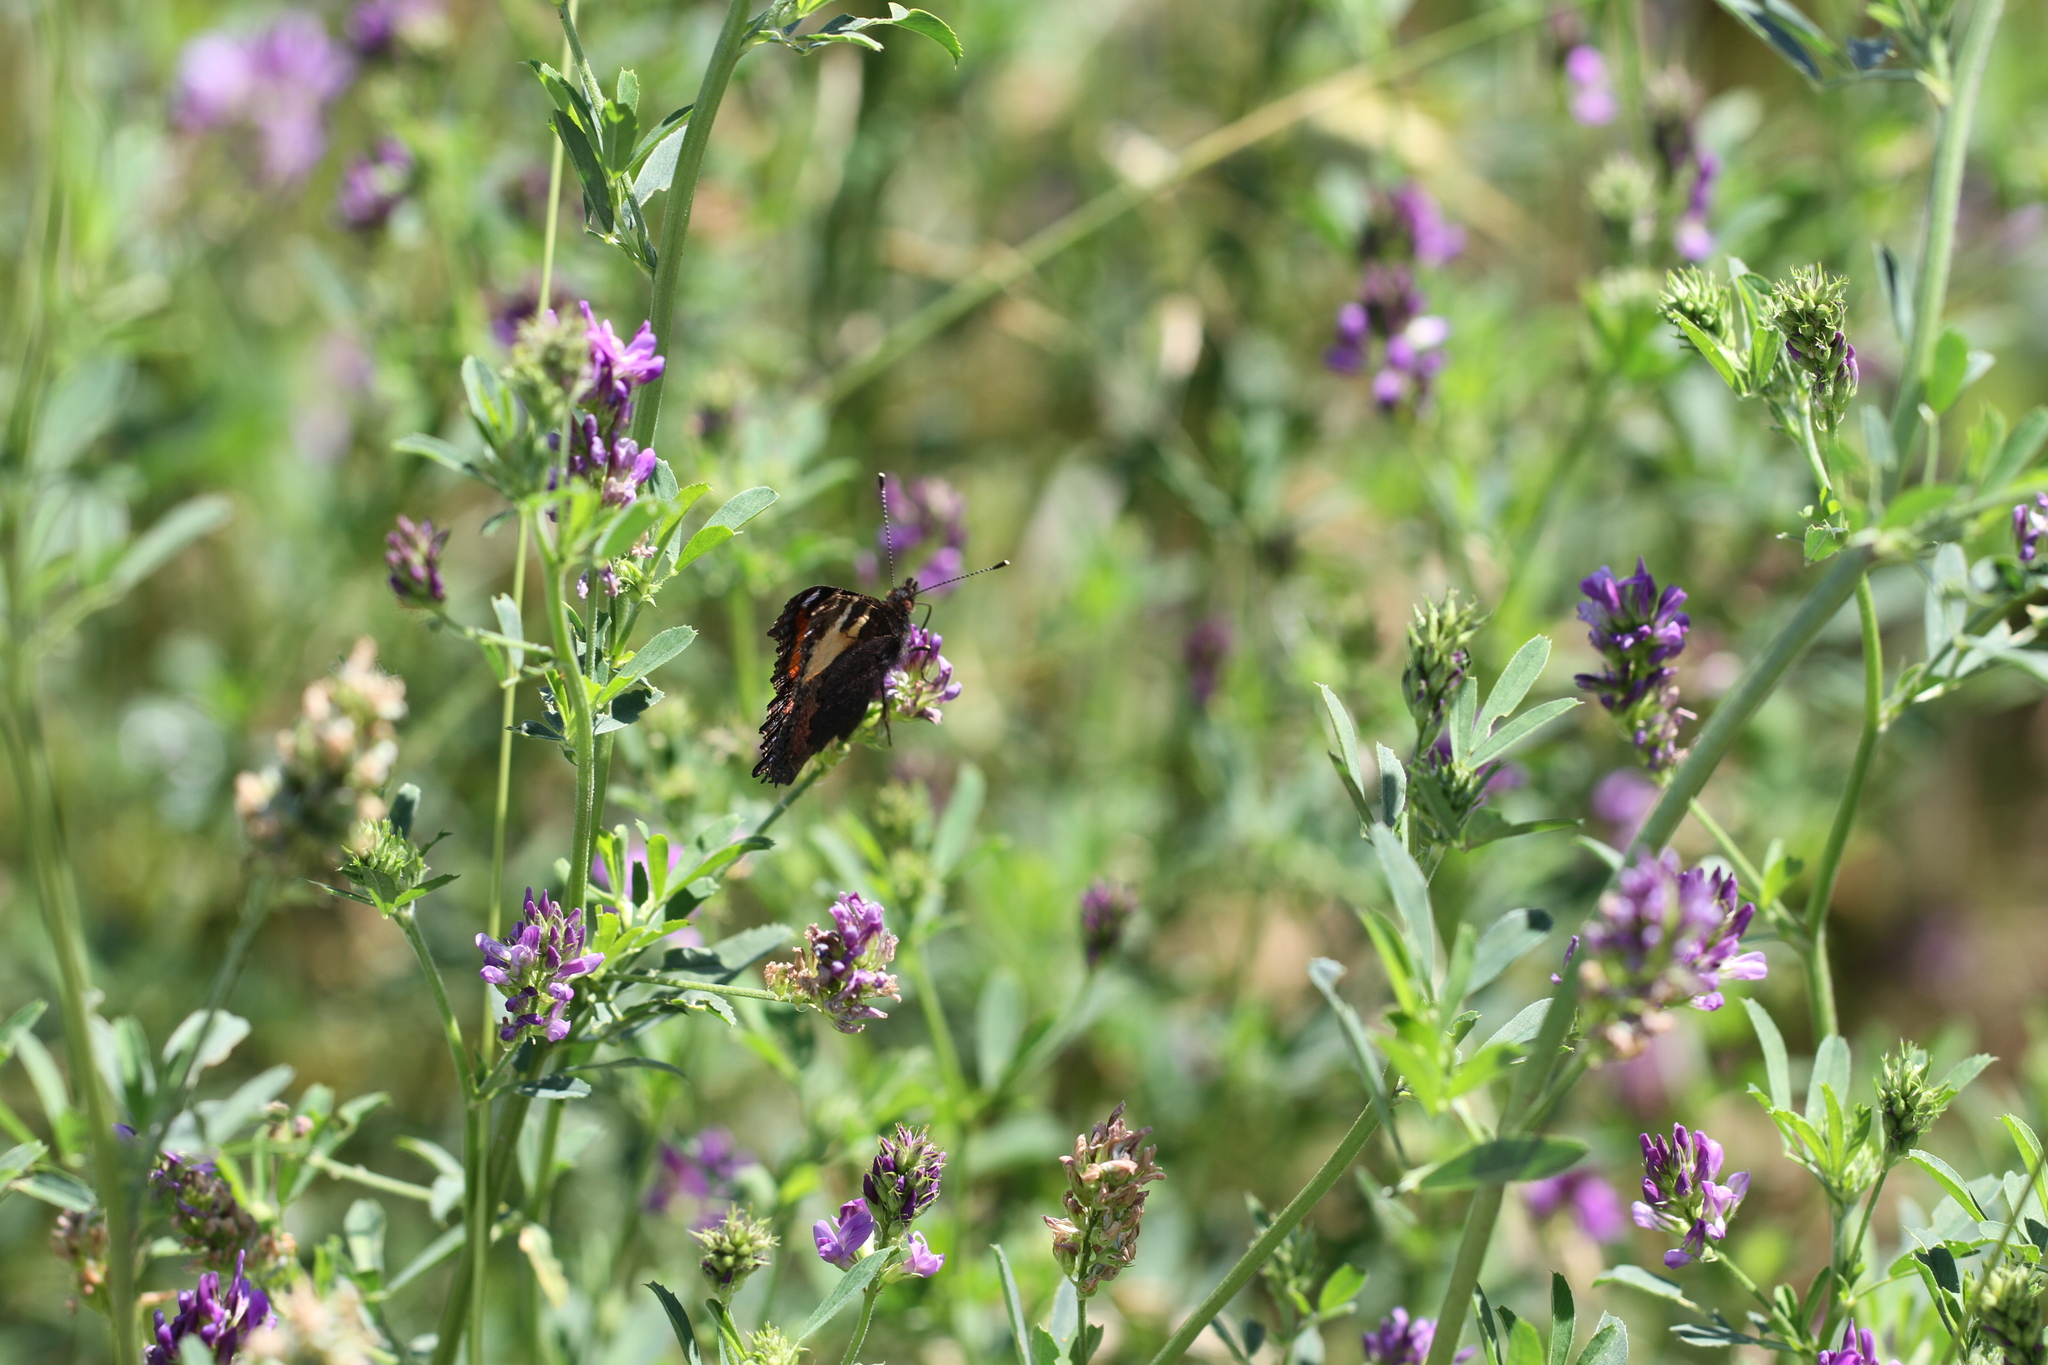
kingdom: Animalia
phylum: Arthropoda
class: Insecta
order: Lepidoptera
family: Nymphalidae
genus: Aglais
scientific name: Aglais urticae
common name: Small tortoiseshell
